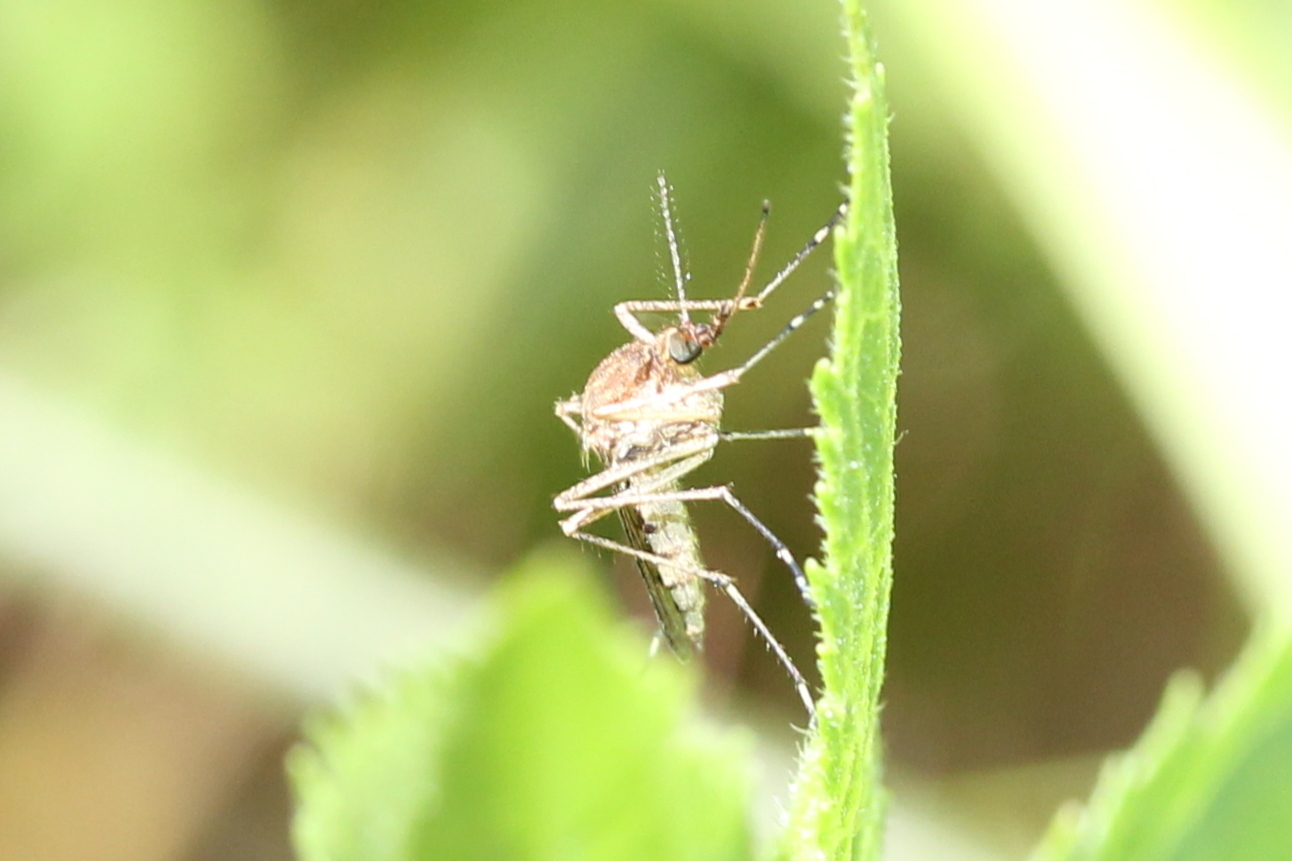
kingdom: Animalia
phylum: Arthropoda
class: Insecta
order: Diptera
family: Culicidae
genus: Aedes
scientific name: Aedes vexans
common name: Inland floodwater mosquito
